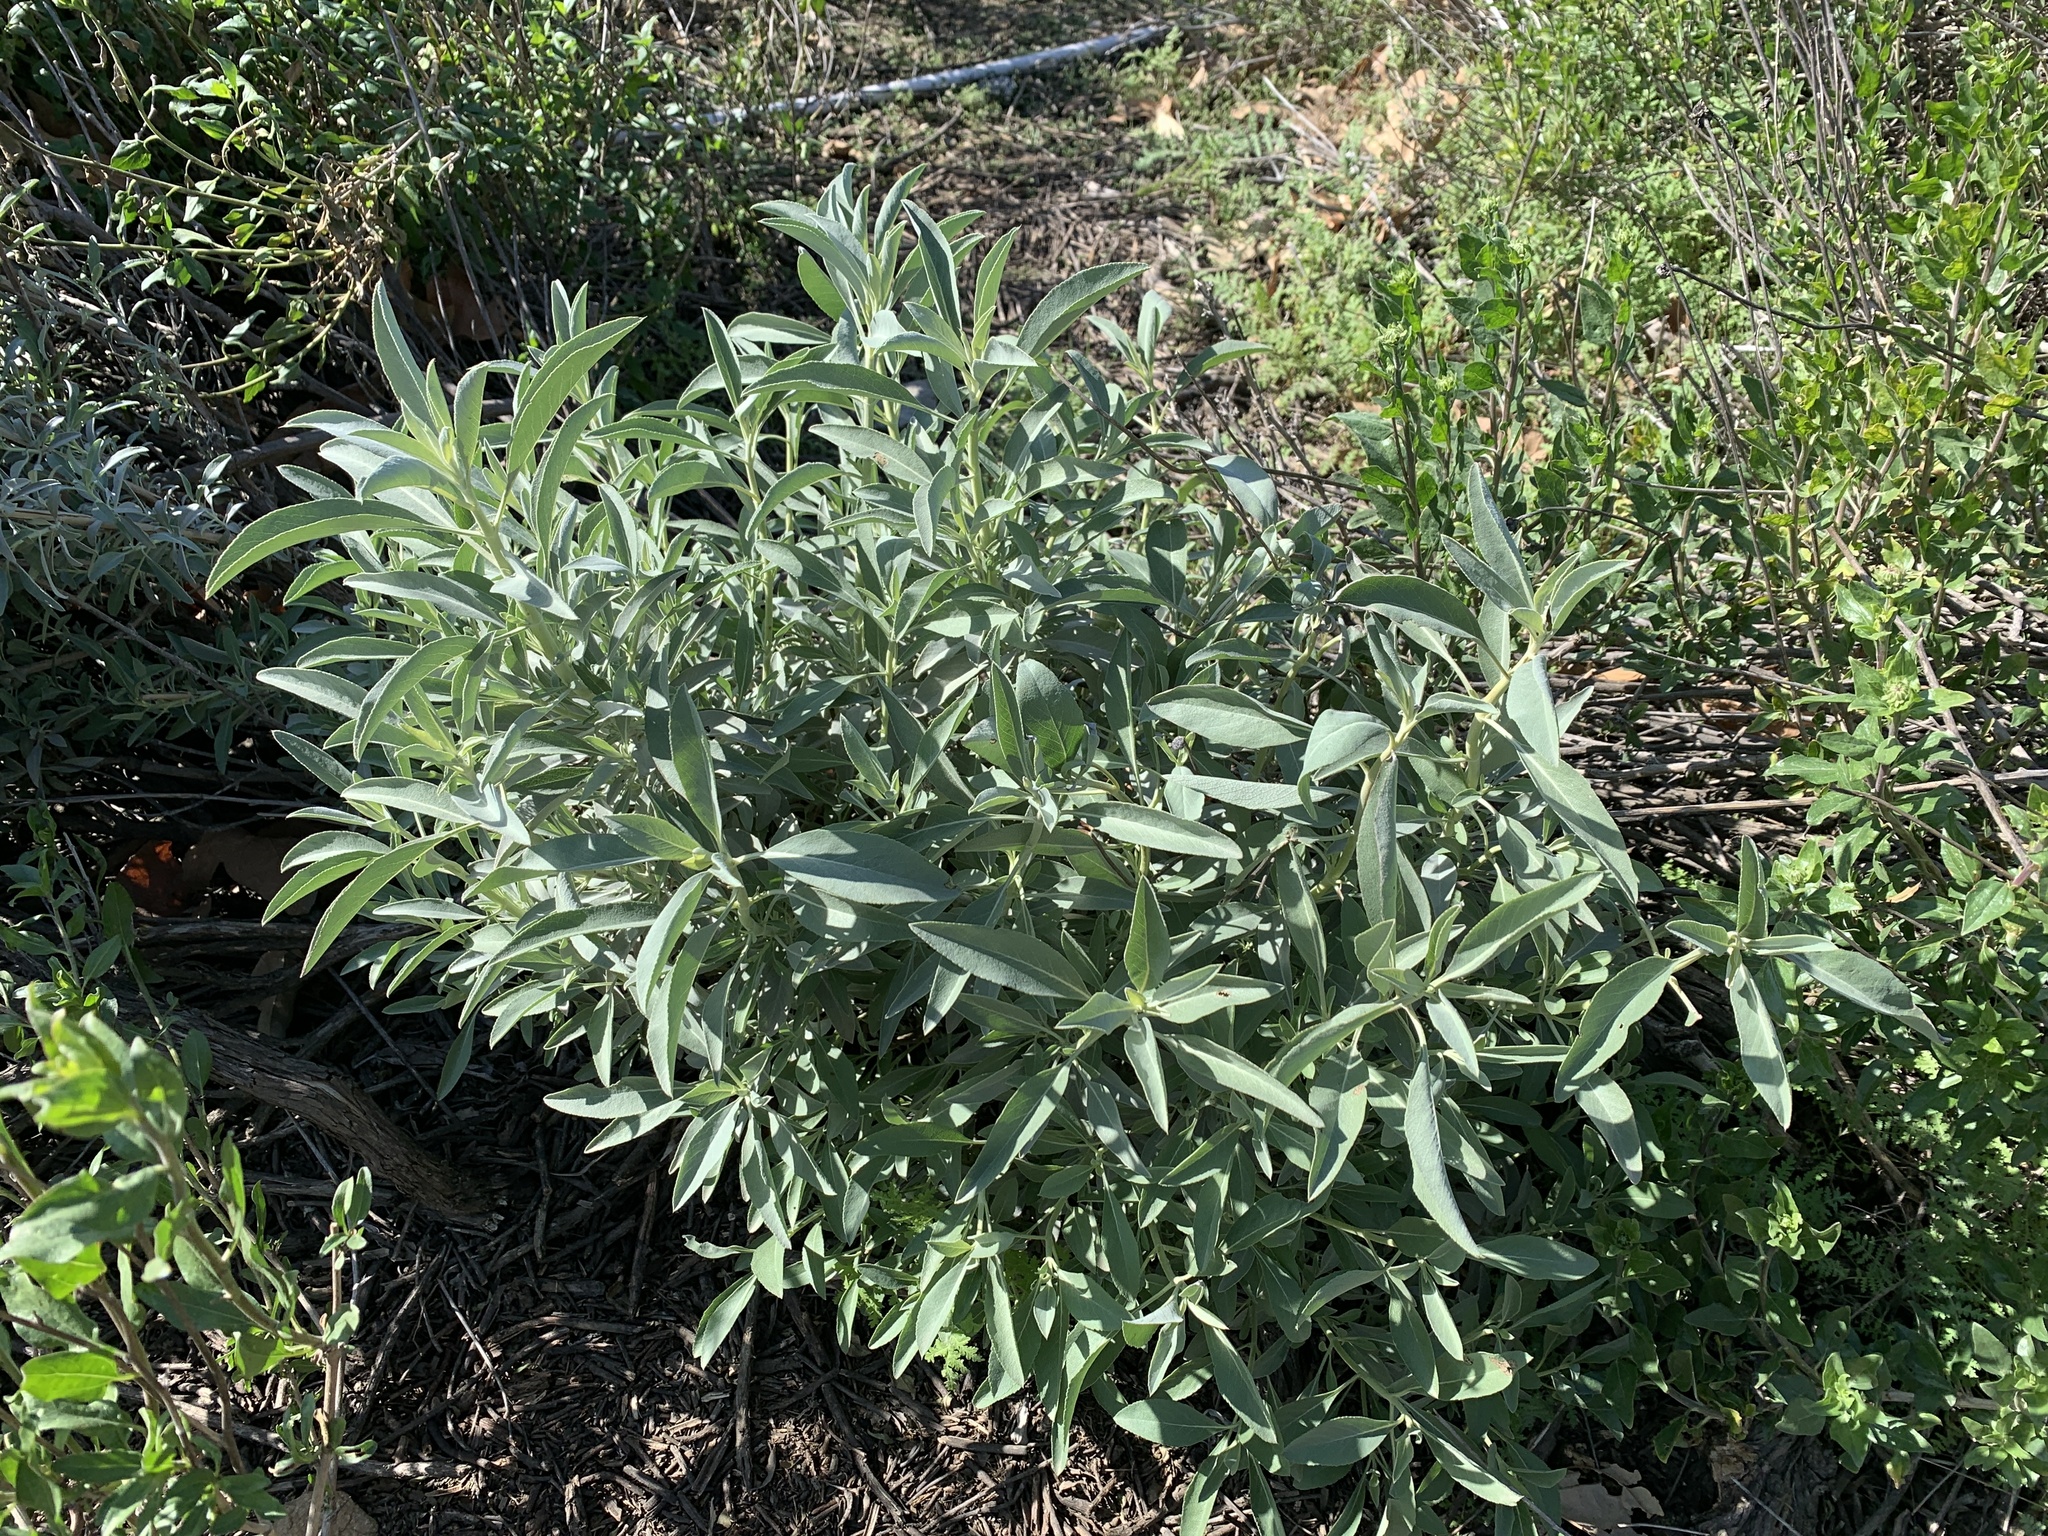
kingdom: Plantae
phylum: Tracheophyta
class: Magnoliopsida
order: Lamiales
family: Lamiaceae
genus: Salvia
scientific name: Salvia apiana
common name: White sage
